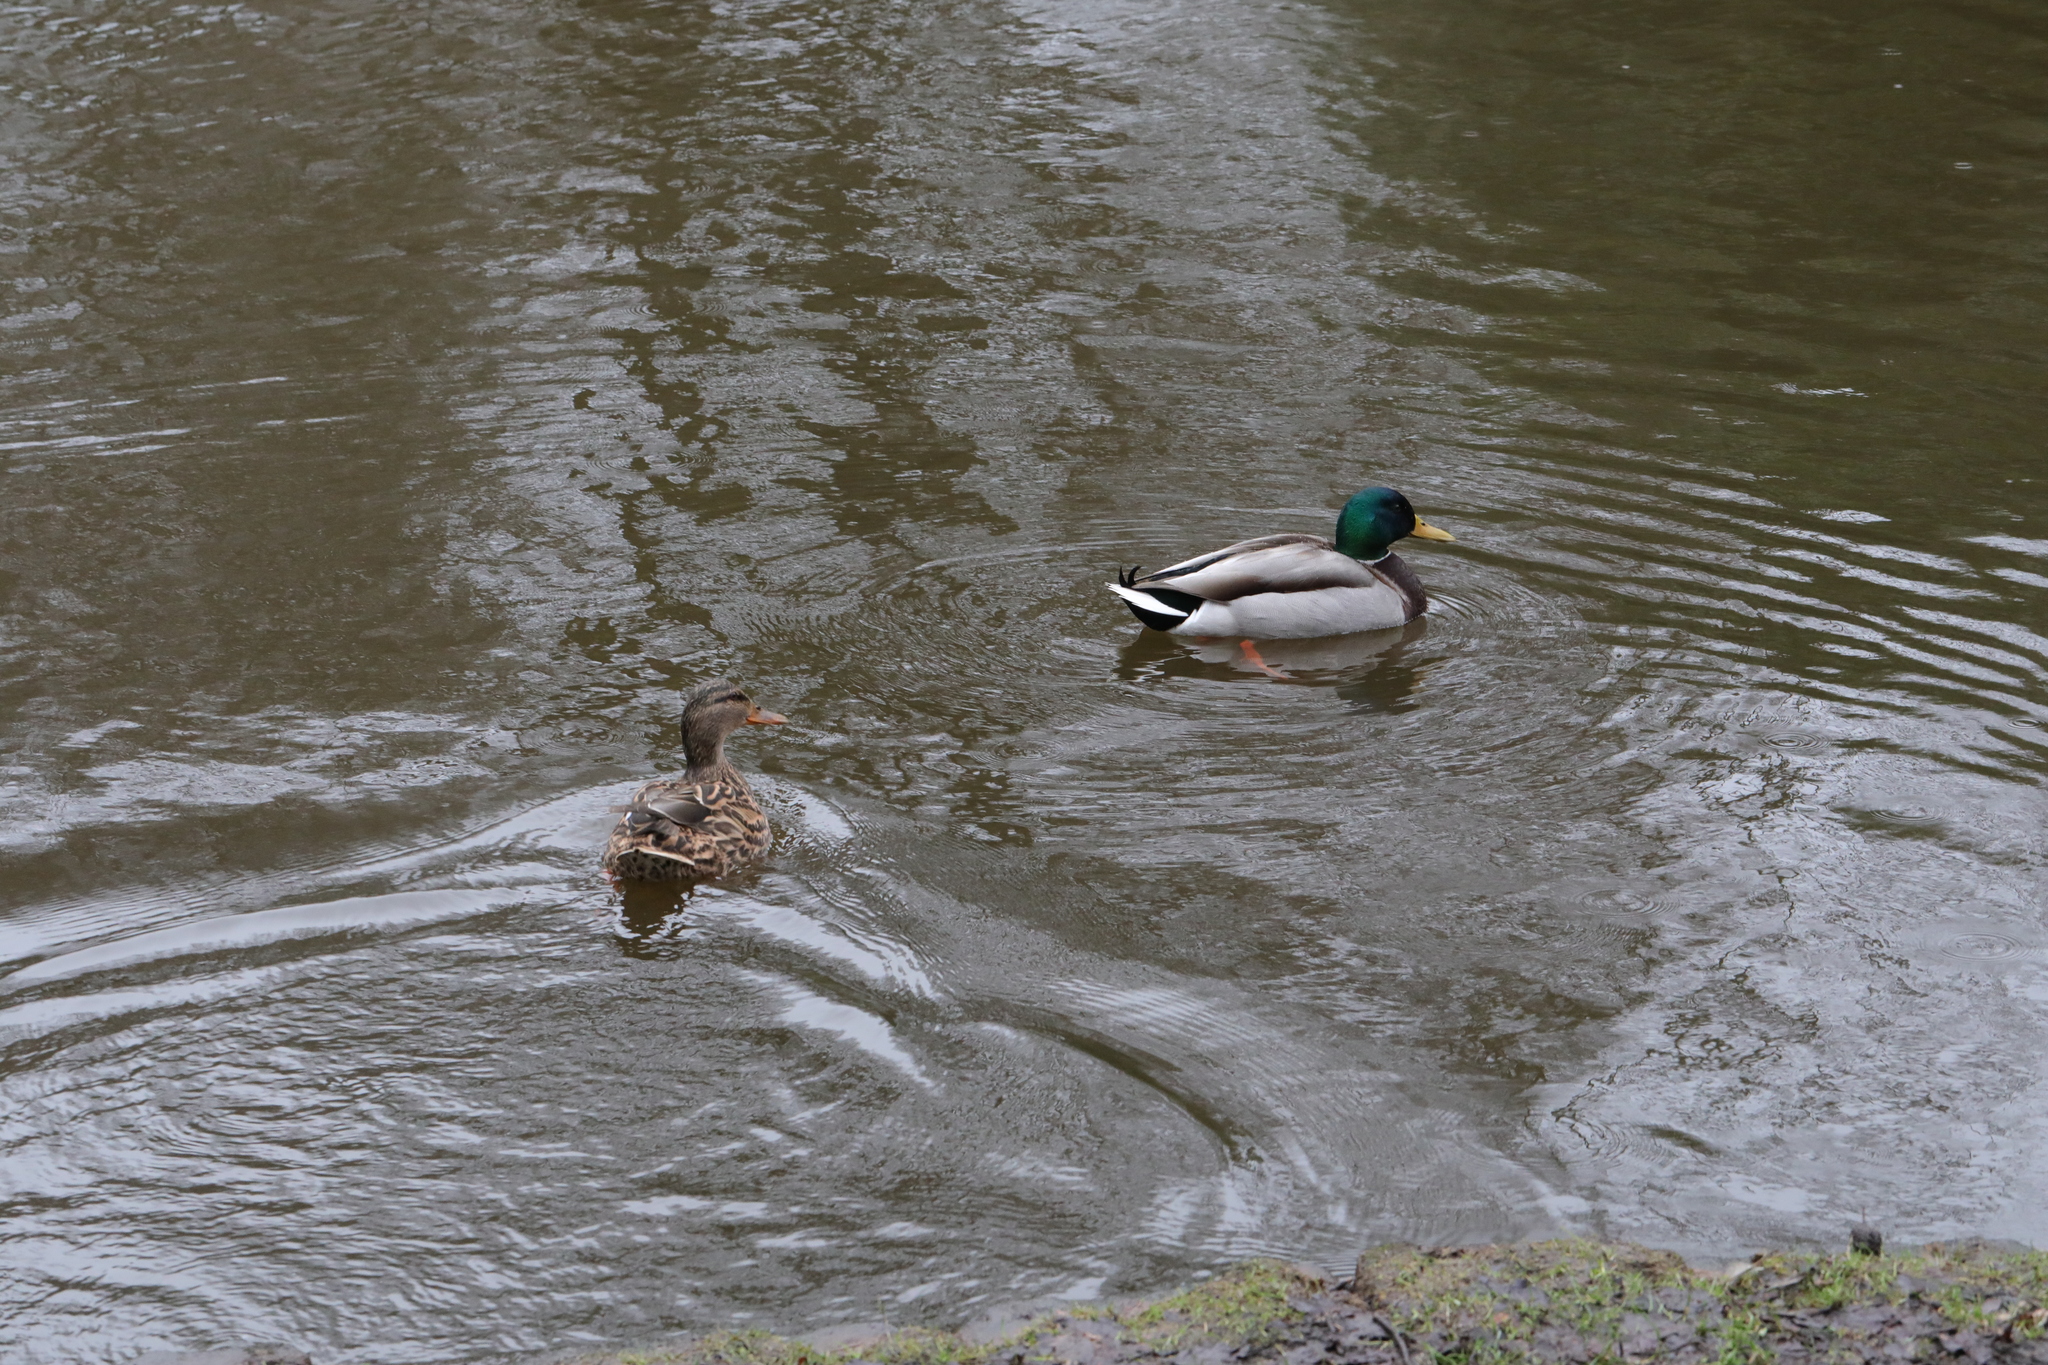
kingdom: Animalia
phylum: Chordata
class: Aves
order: Anseriformes
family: Anatidae
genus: Anas
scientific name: Anas platyrhynchos
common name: Mallard
